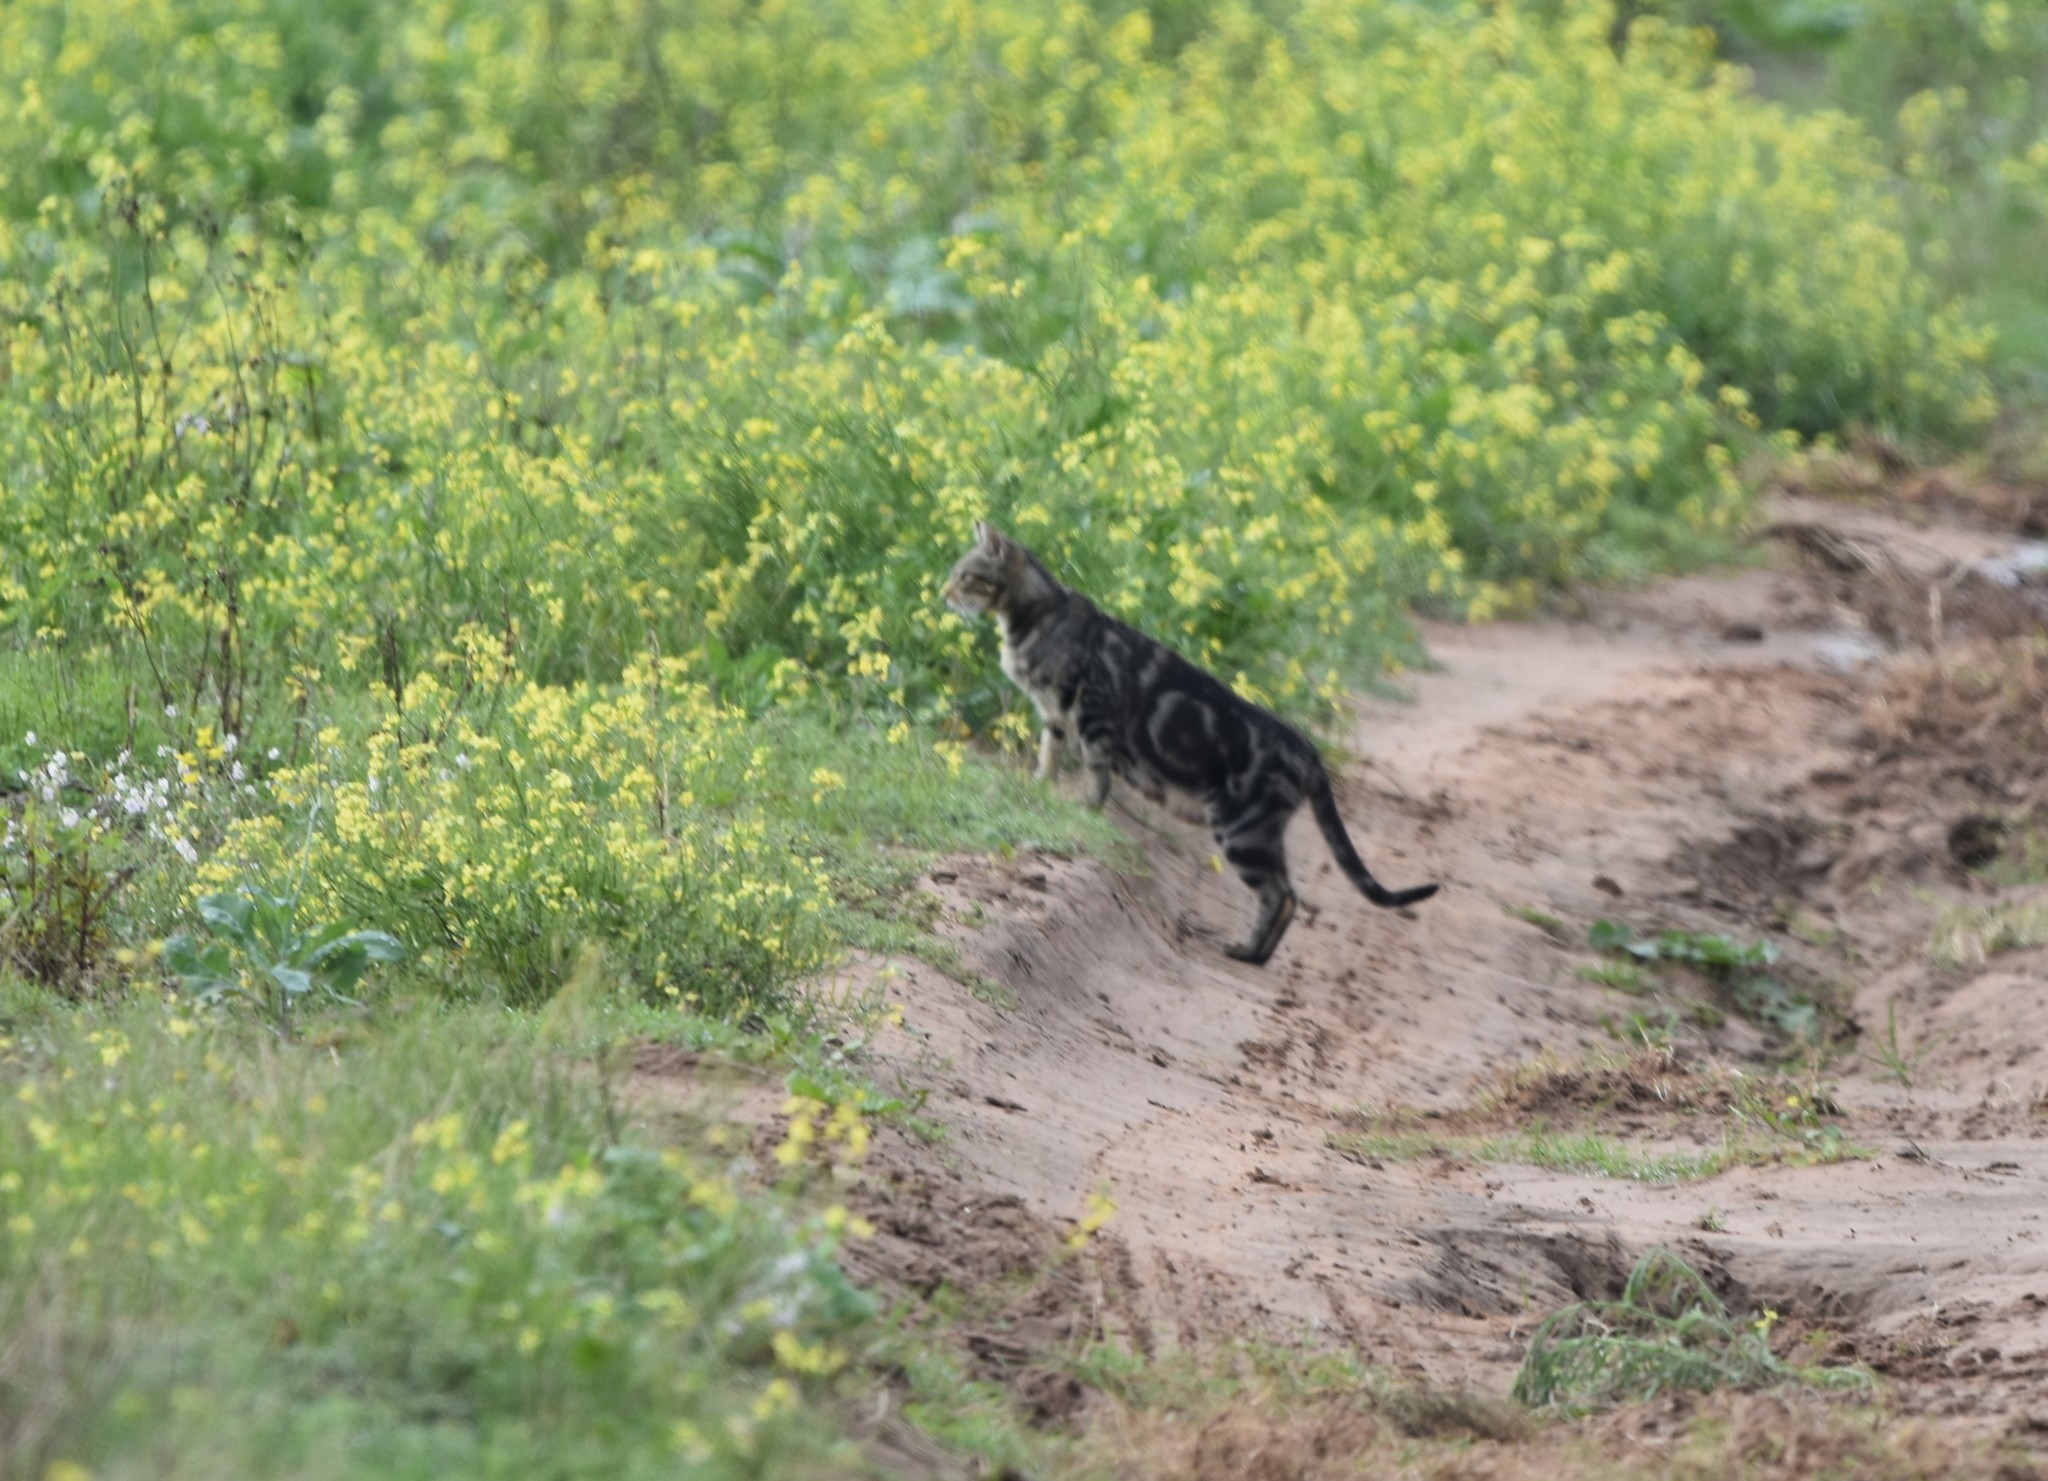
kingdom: Animalia
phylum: Chordata
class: Mammalia
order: Carnivora
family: Felidae
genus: Felis
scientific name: Felis catus
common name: Domestic cat
